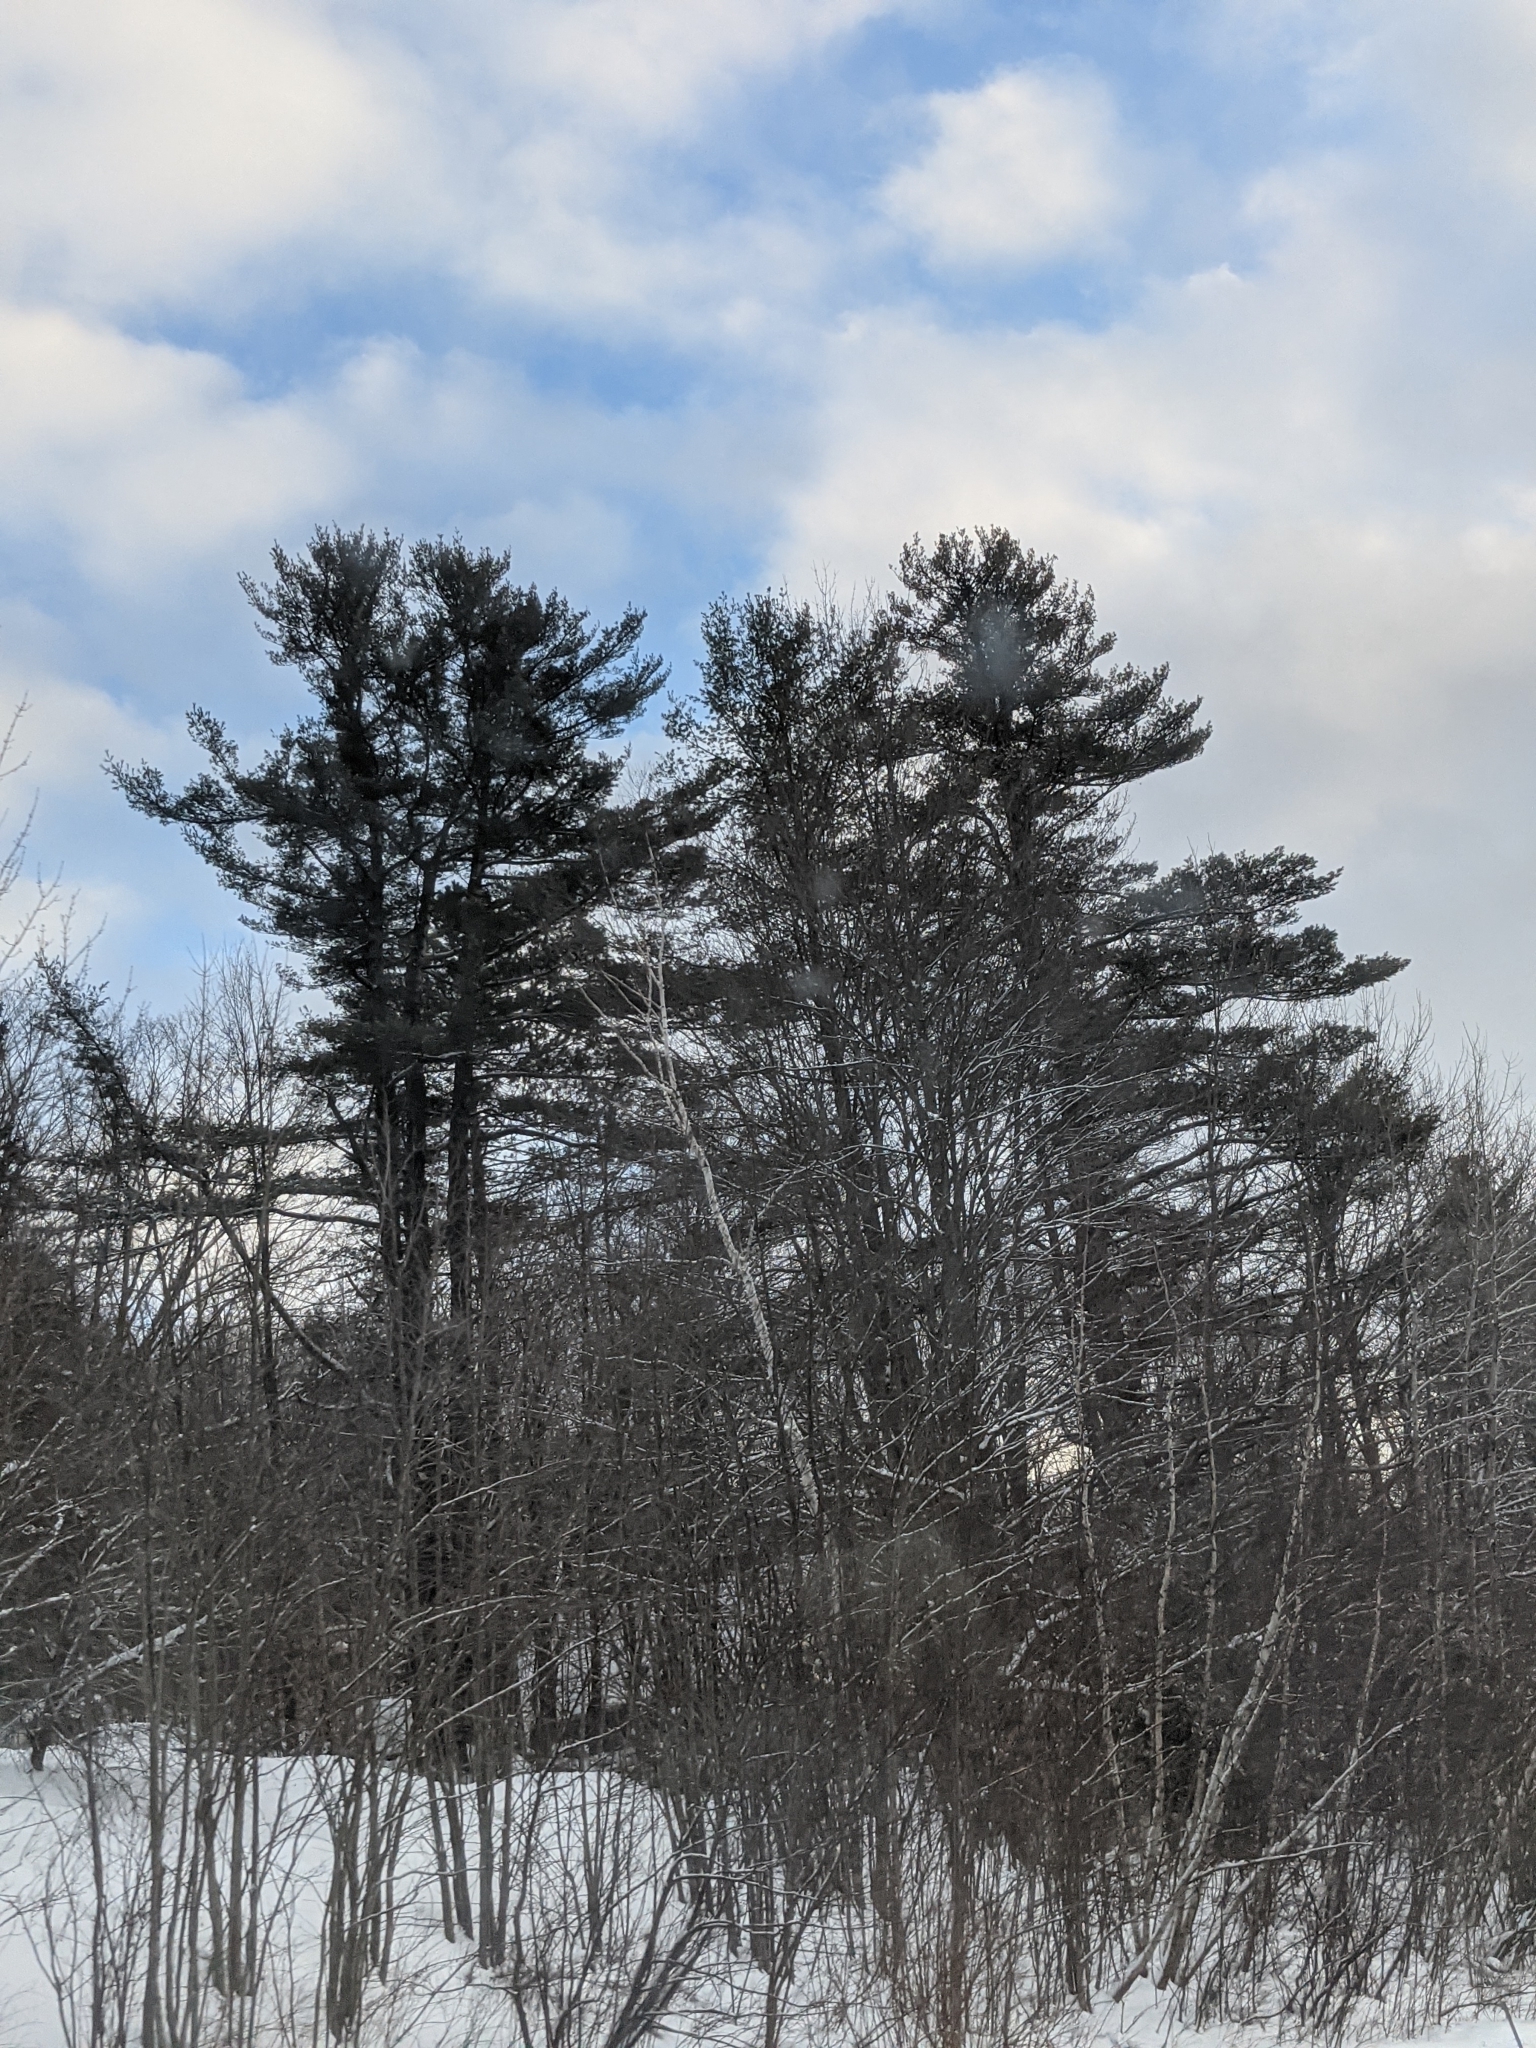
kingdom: Plantae
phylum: Tracheophyta
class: Pinopsida
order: Pinales
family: Pinaceae
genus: Pinus
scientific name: Pinus strobus
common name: Weymouth pine
